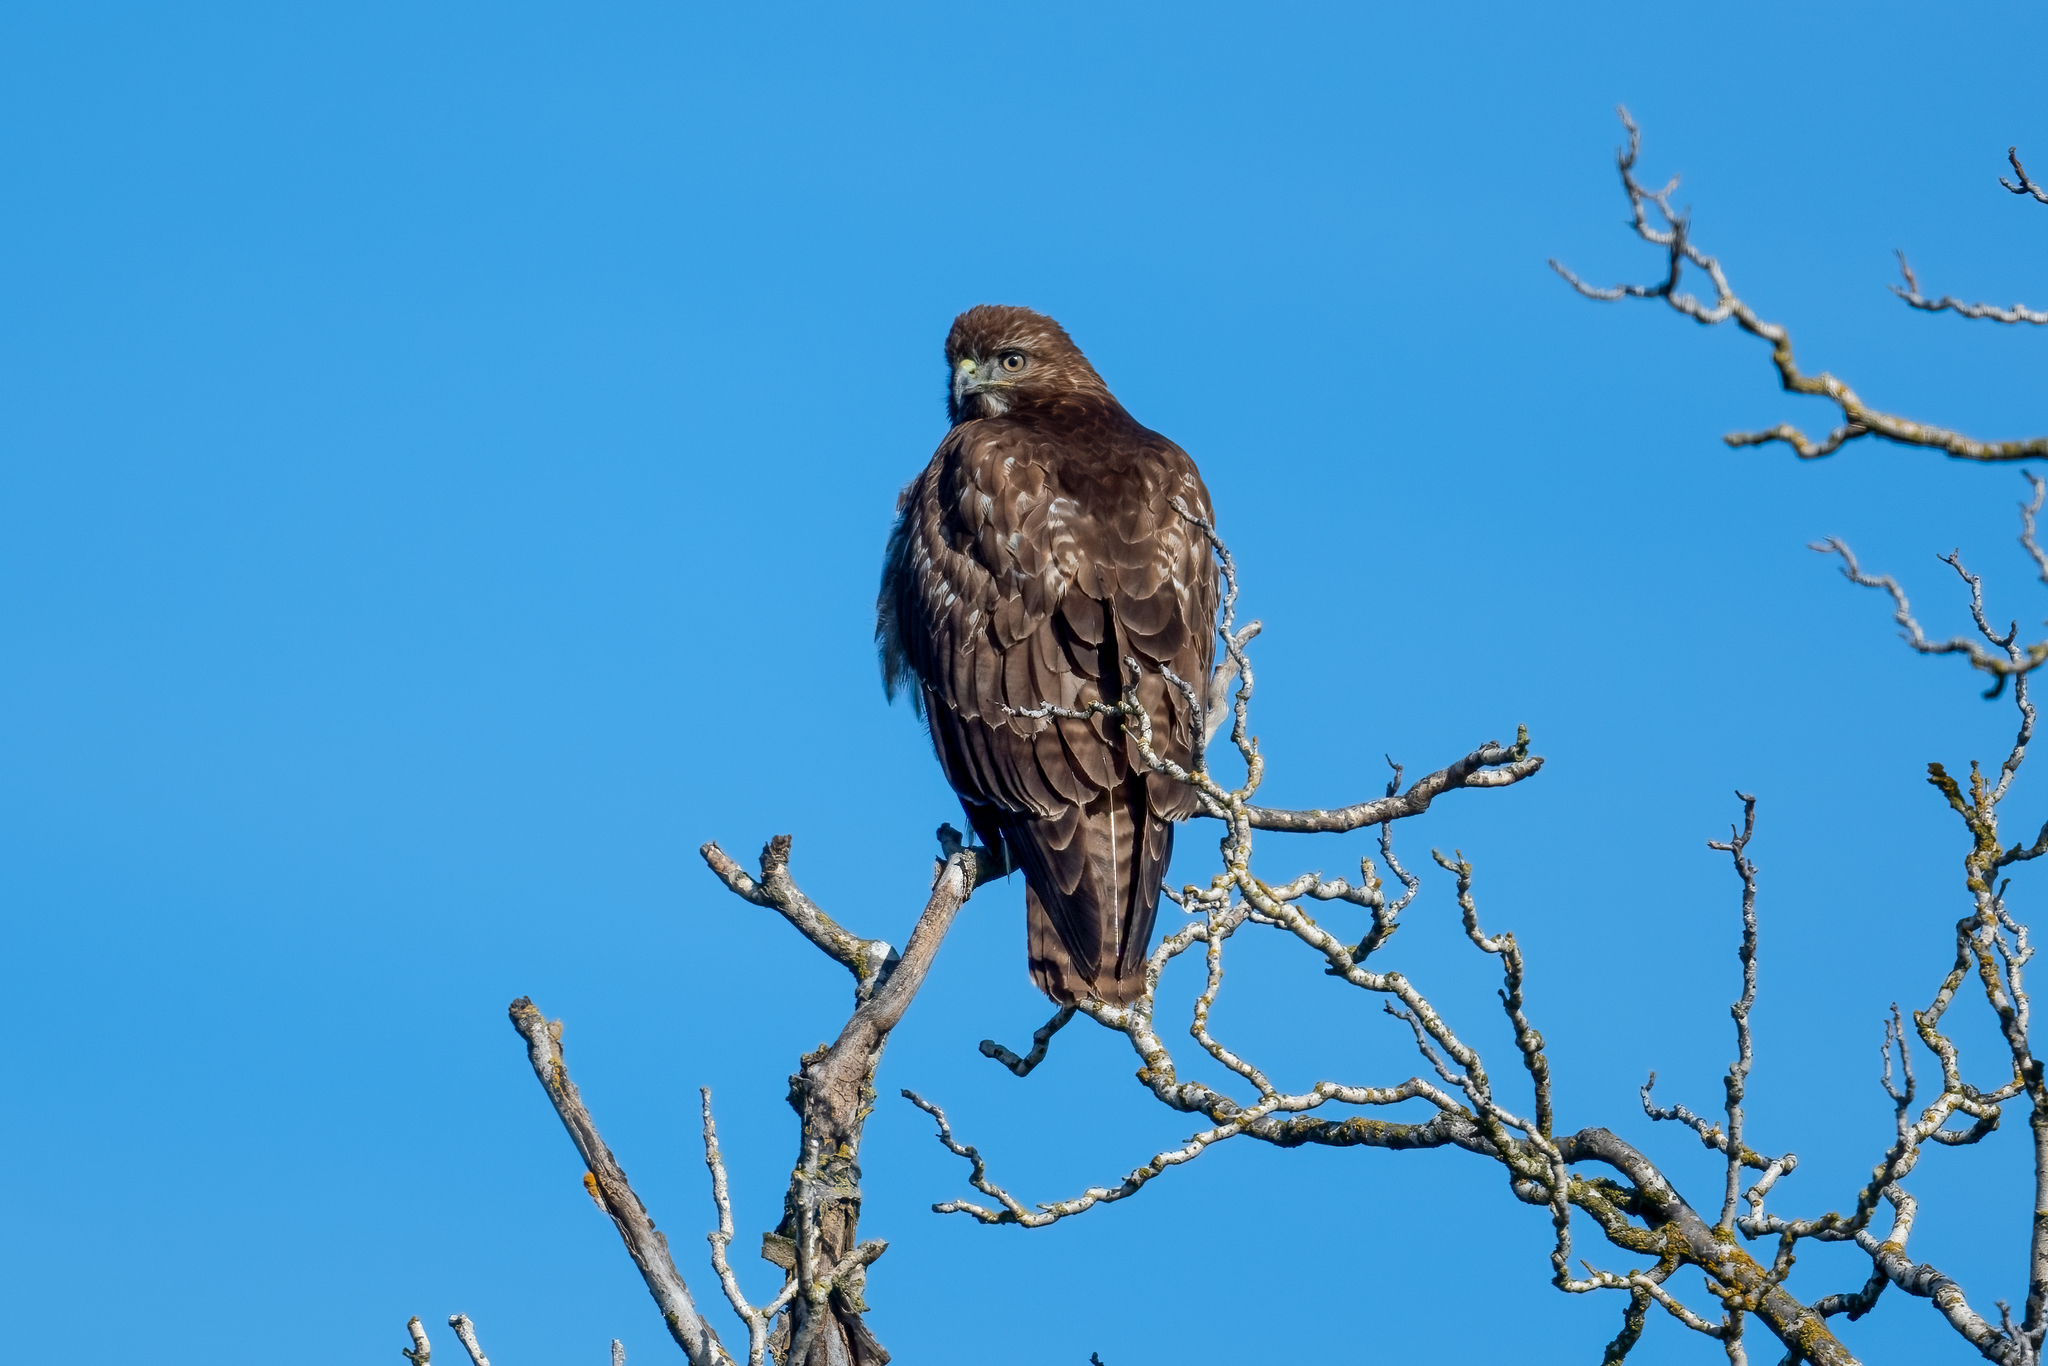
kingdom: Animalia
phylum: Chordata
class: Aves
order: Accipitriformes
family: Accipitridae
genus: Buteo
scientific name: Buteo jamaicensis
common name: Red-tailed hawk
